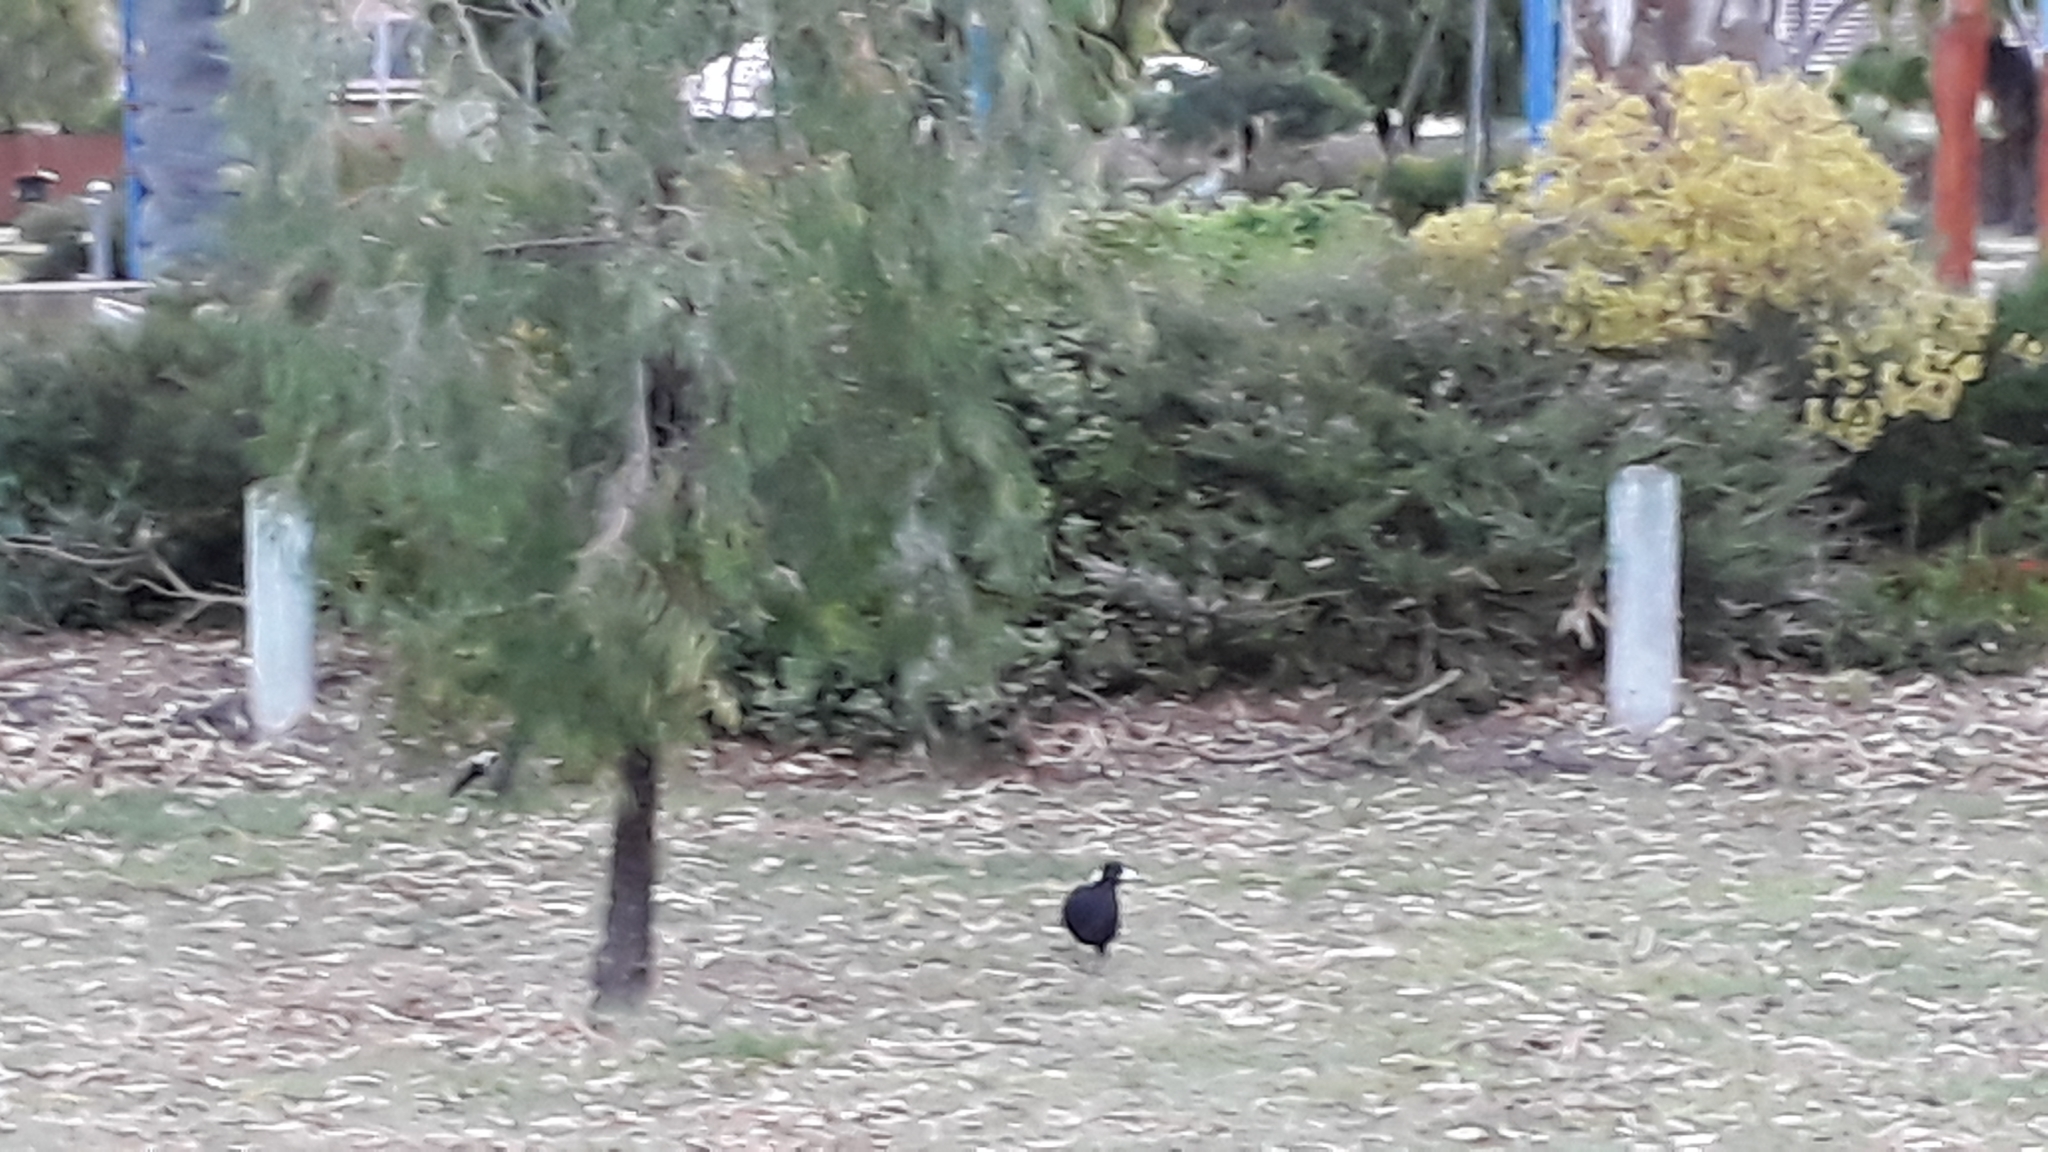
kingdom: Animalia
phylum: Chordata
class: Aves
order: Passeriformes
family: Cracticidae
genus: Gymnorhina
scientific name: Gymnorhina tibicen
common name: Australian magpie
